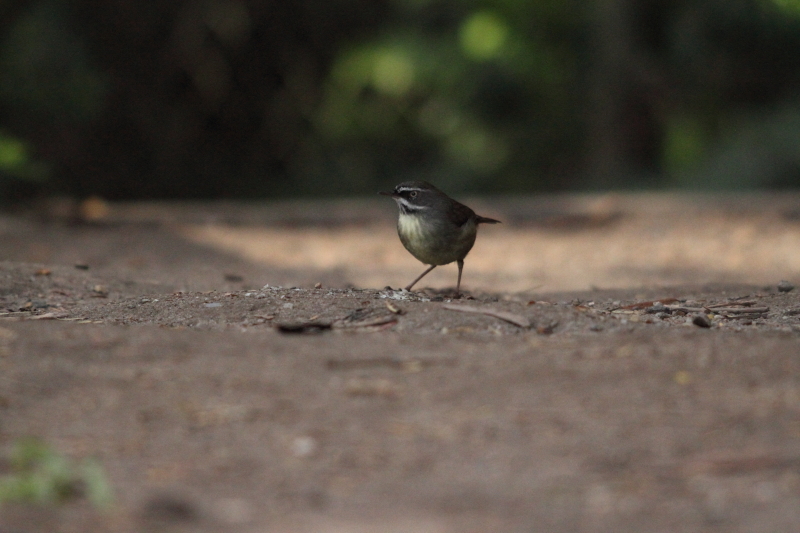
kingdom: Animalia
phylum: Chordata
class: Aves
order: Passeriformes
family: Acanthizidae
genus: Sericornis
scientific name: Sericornis frontalis
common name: White-browed scrubwren
